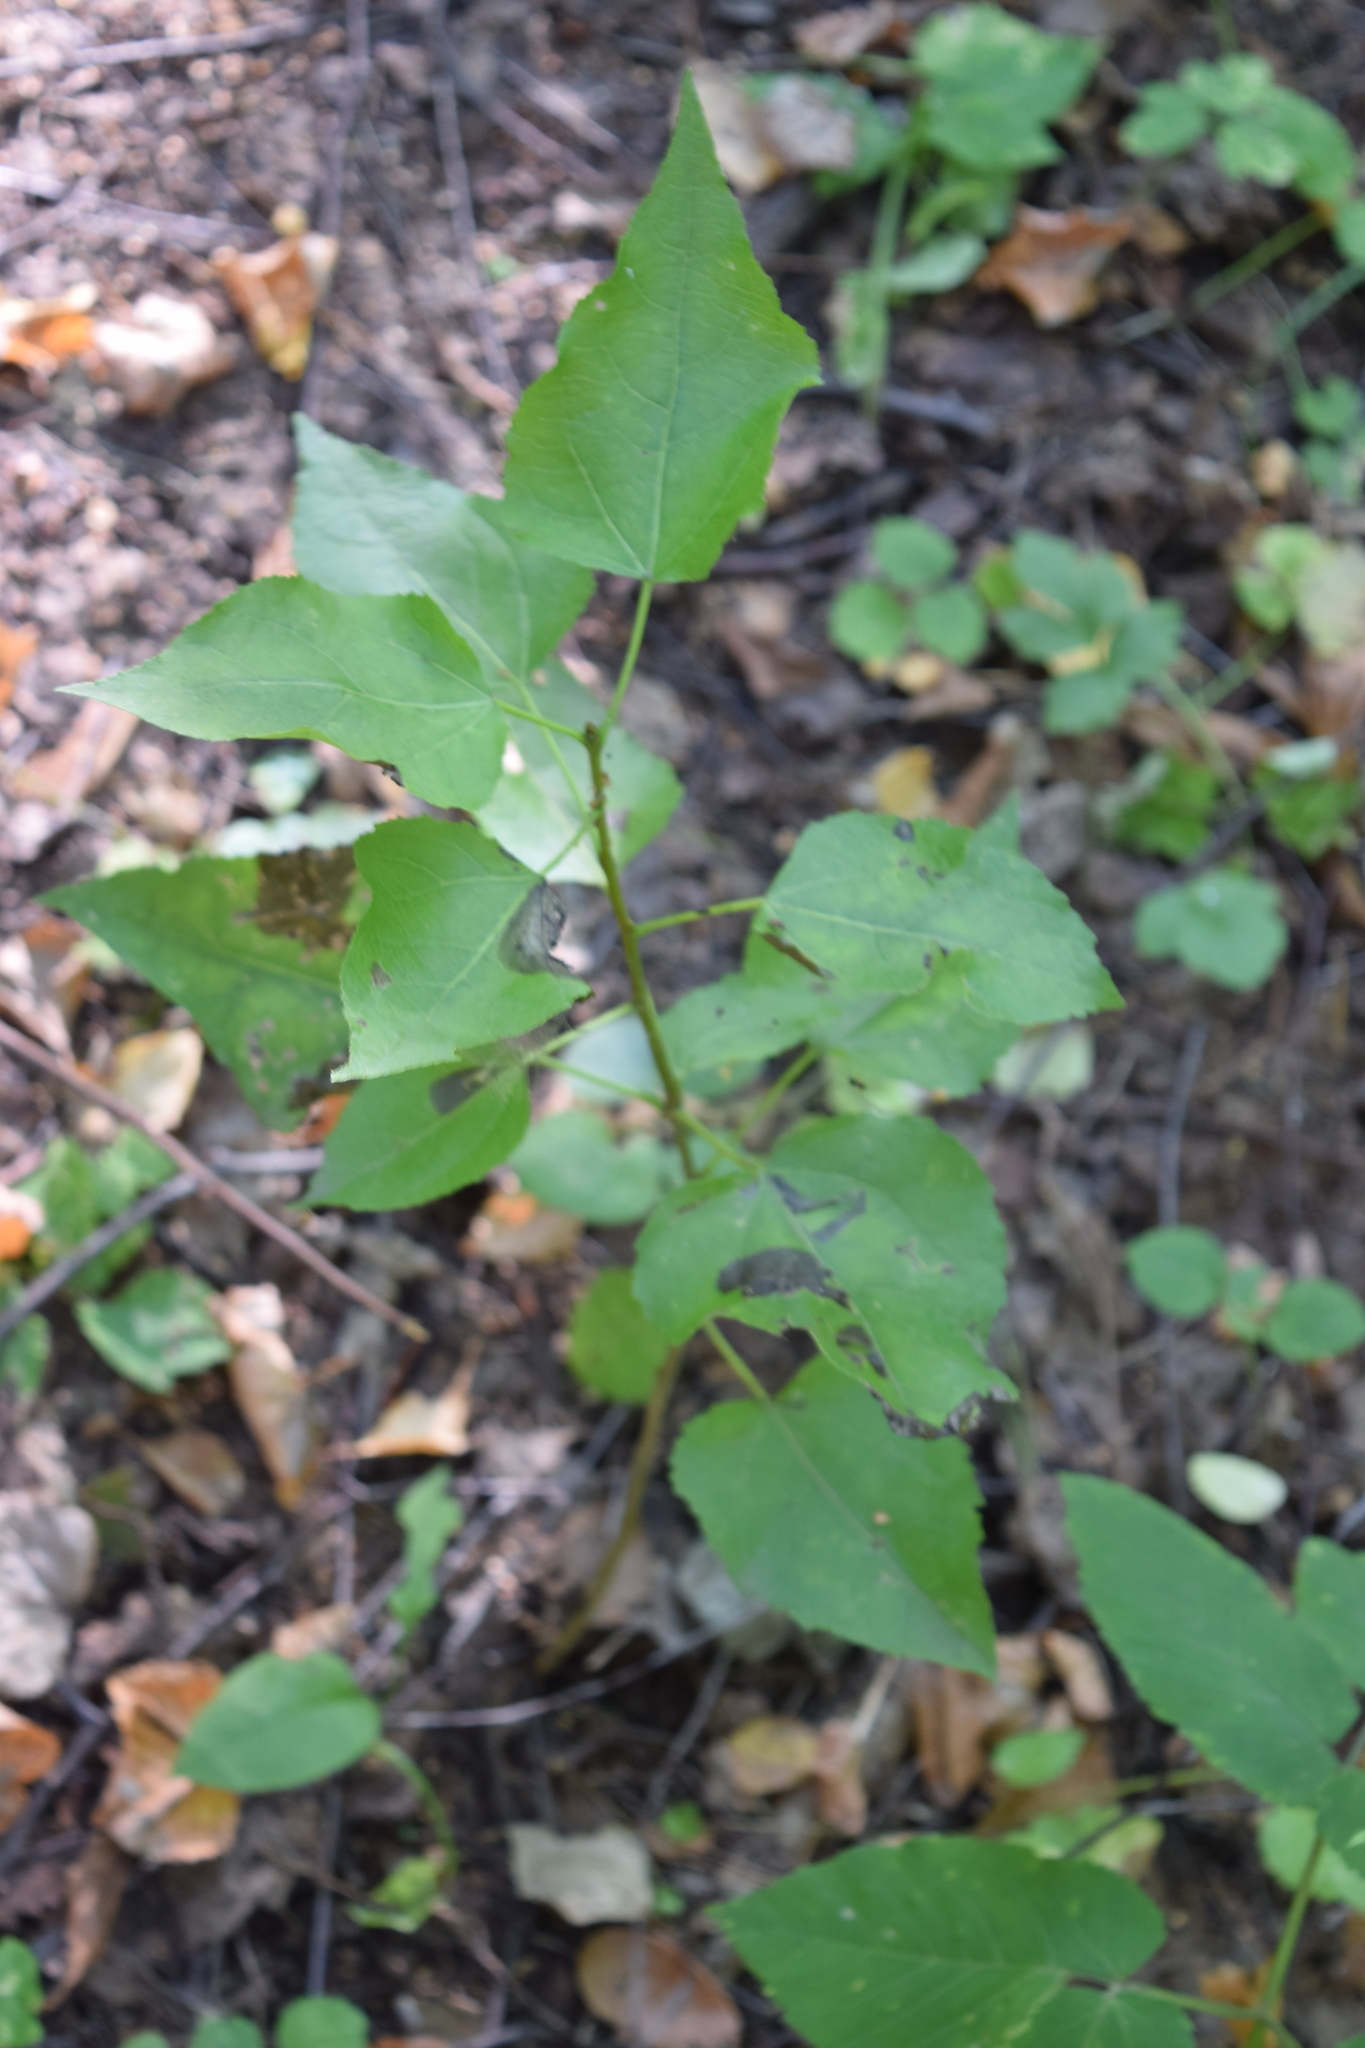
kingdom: Plantae
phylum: Tracheophyta
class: Magnoliopsida
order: Malpighiales
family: Salicaceae
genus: Populus
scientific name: Populus tremula
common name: European aspen
